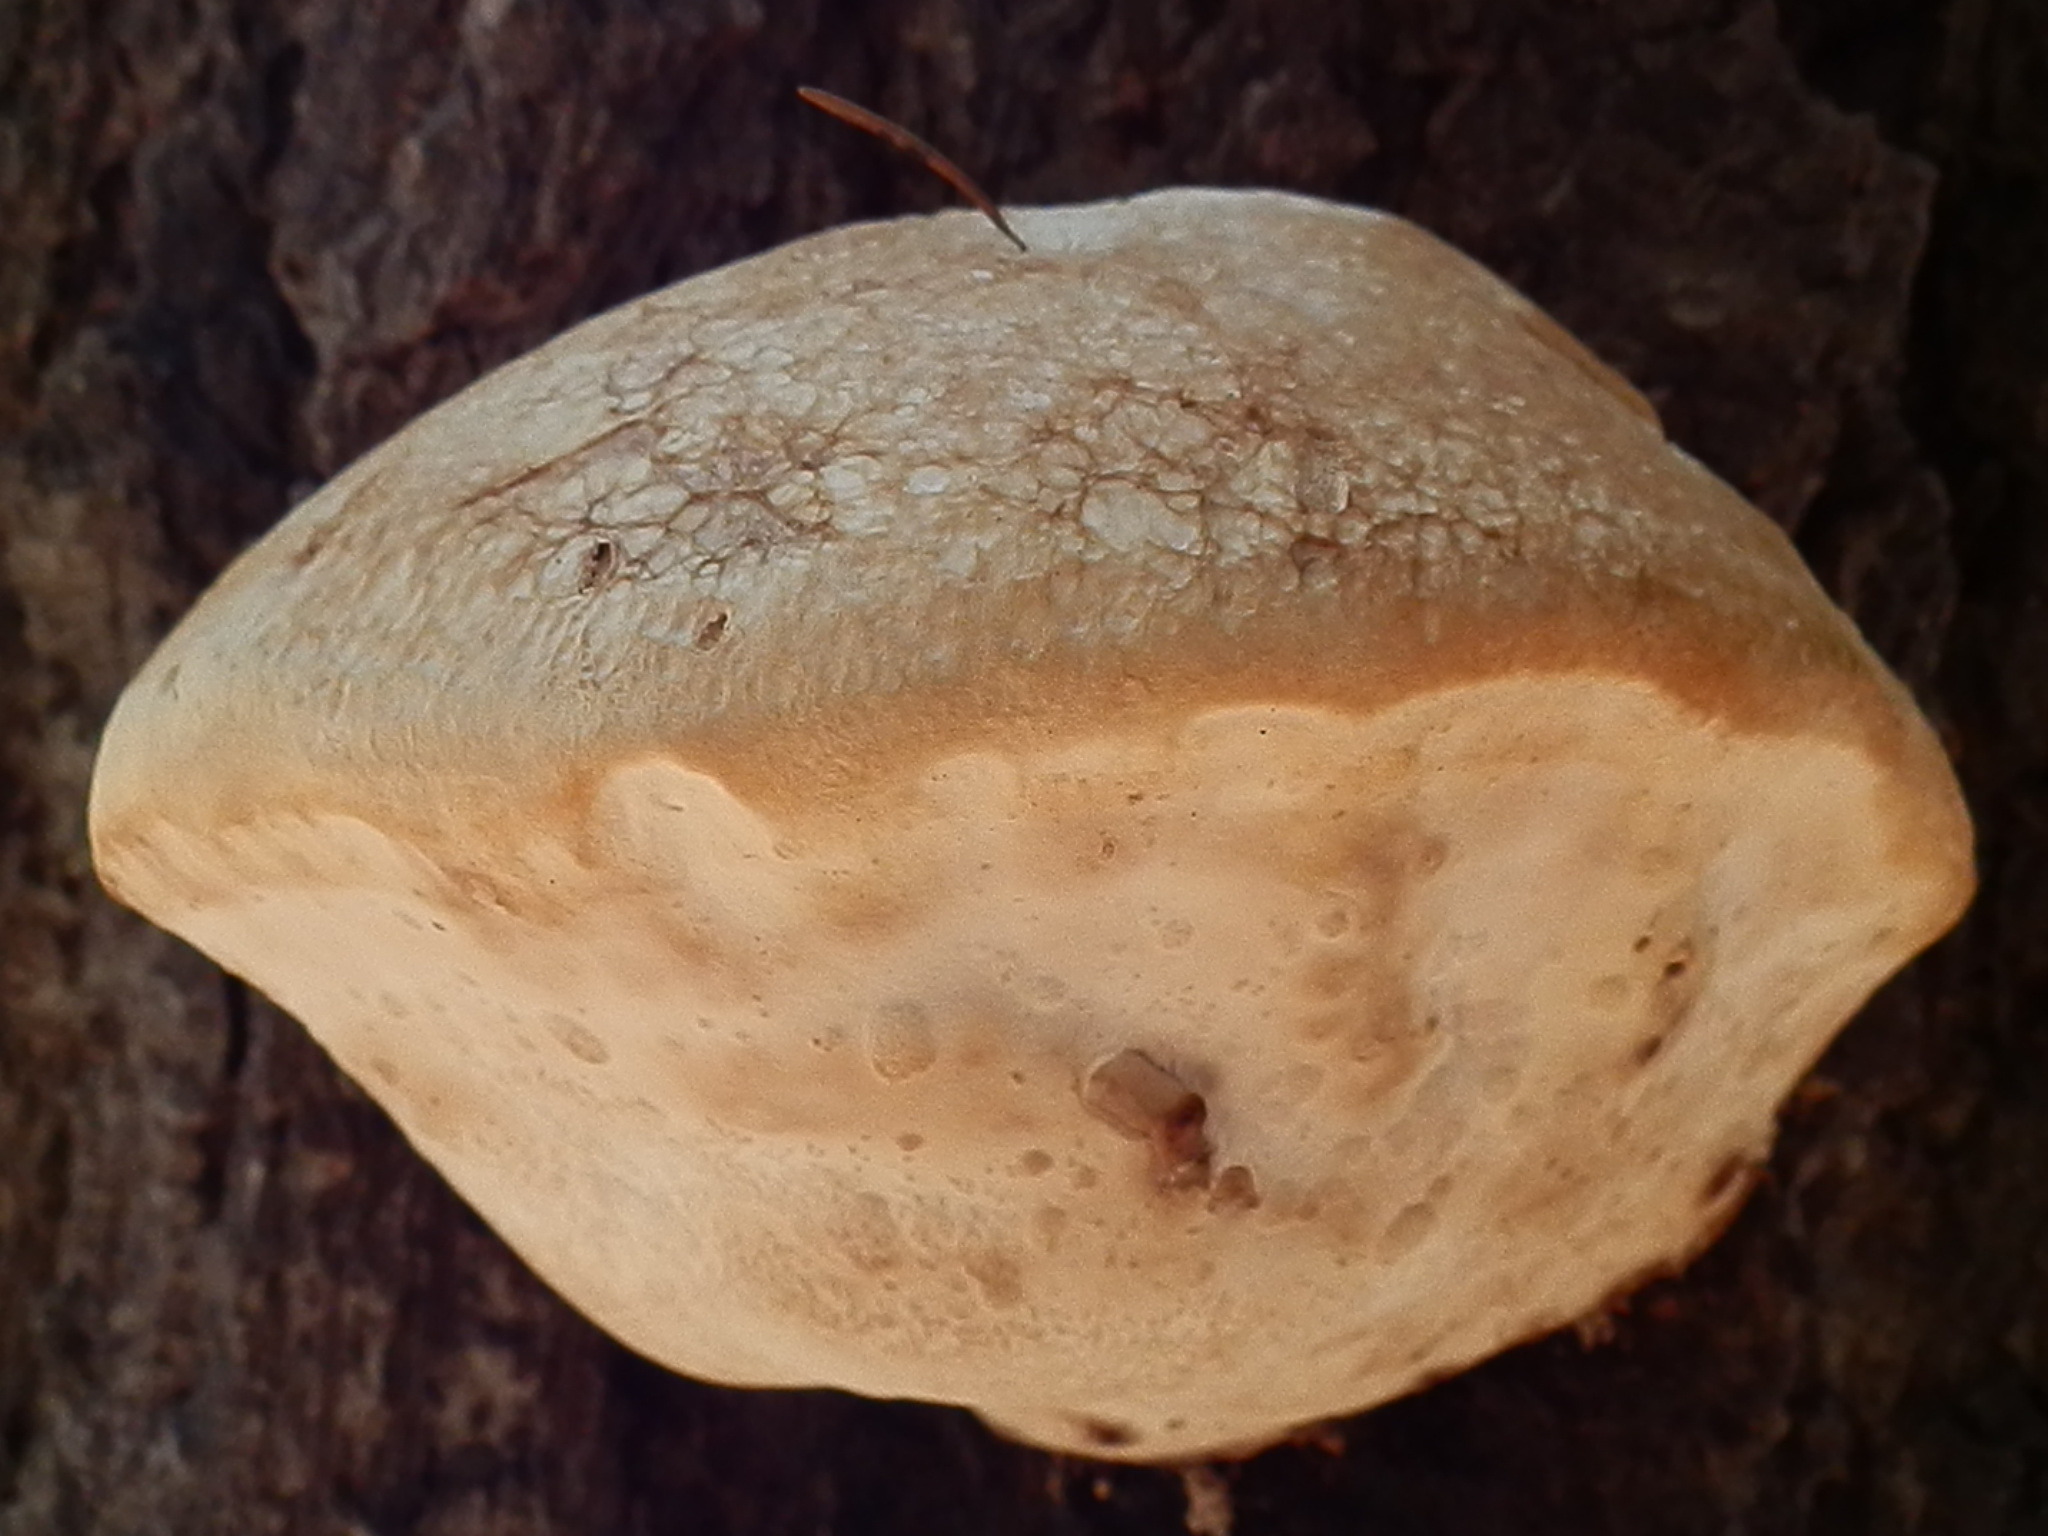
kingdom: Fungi
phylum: Basidiomycota
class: Agaricomycetes
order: Polyporales
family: Fomitopsidaceae
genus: Fomitopsis
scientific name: Fomitopsis schrenkii
